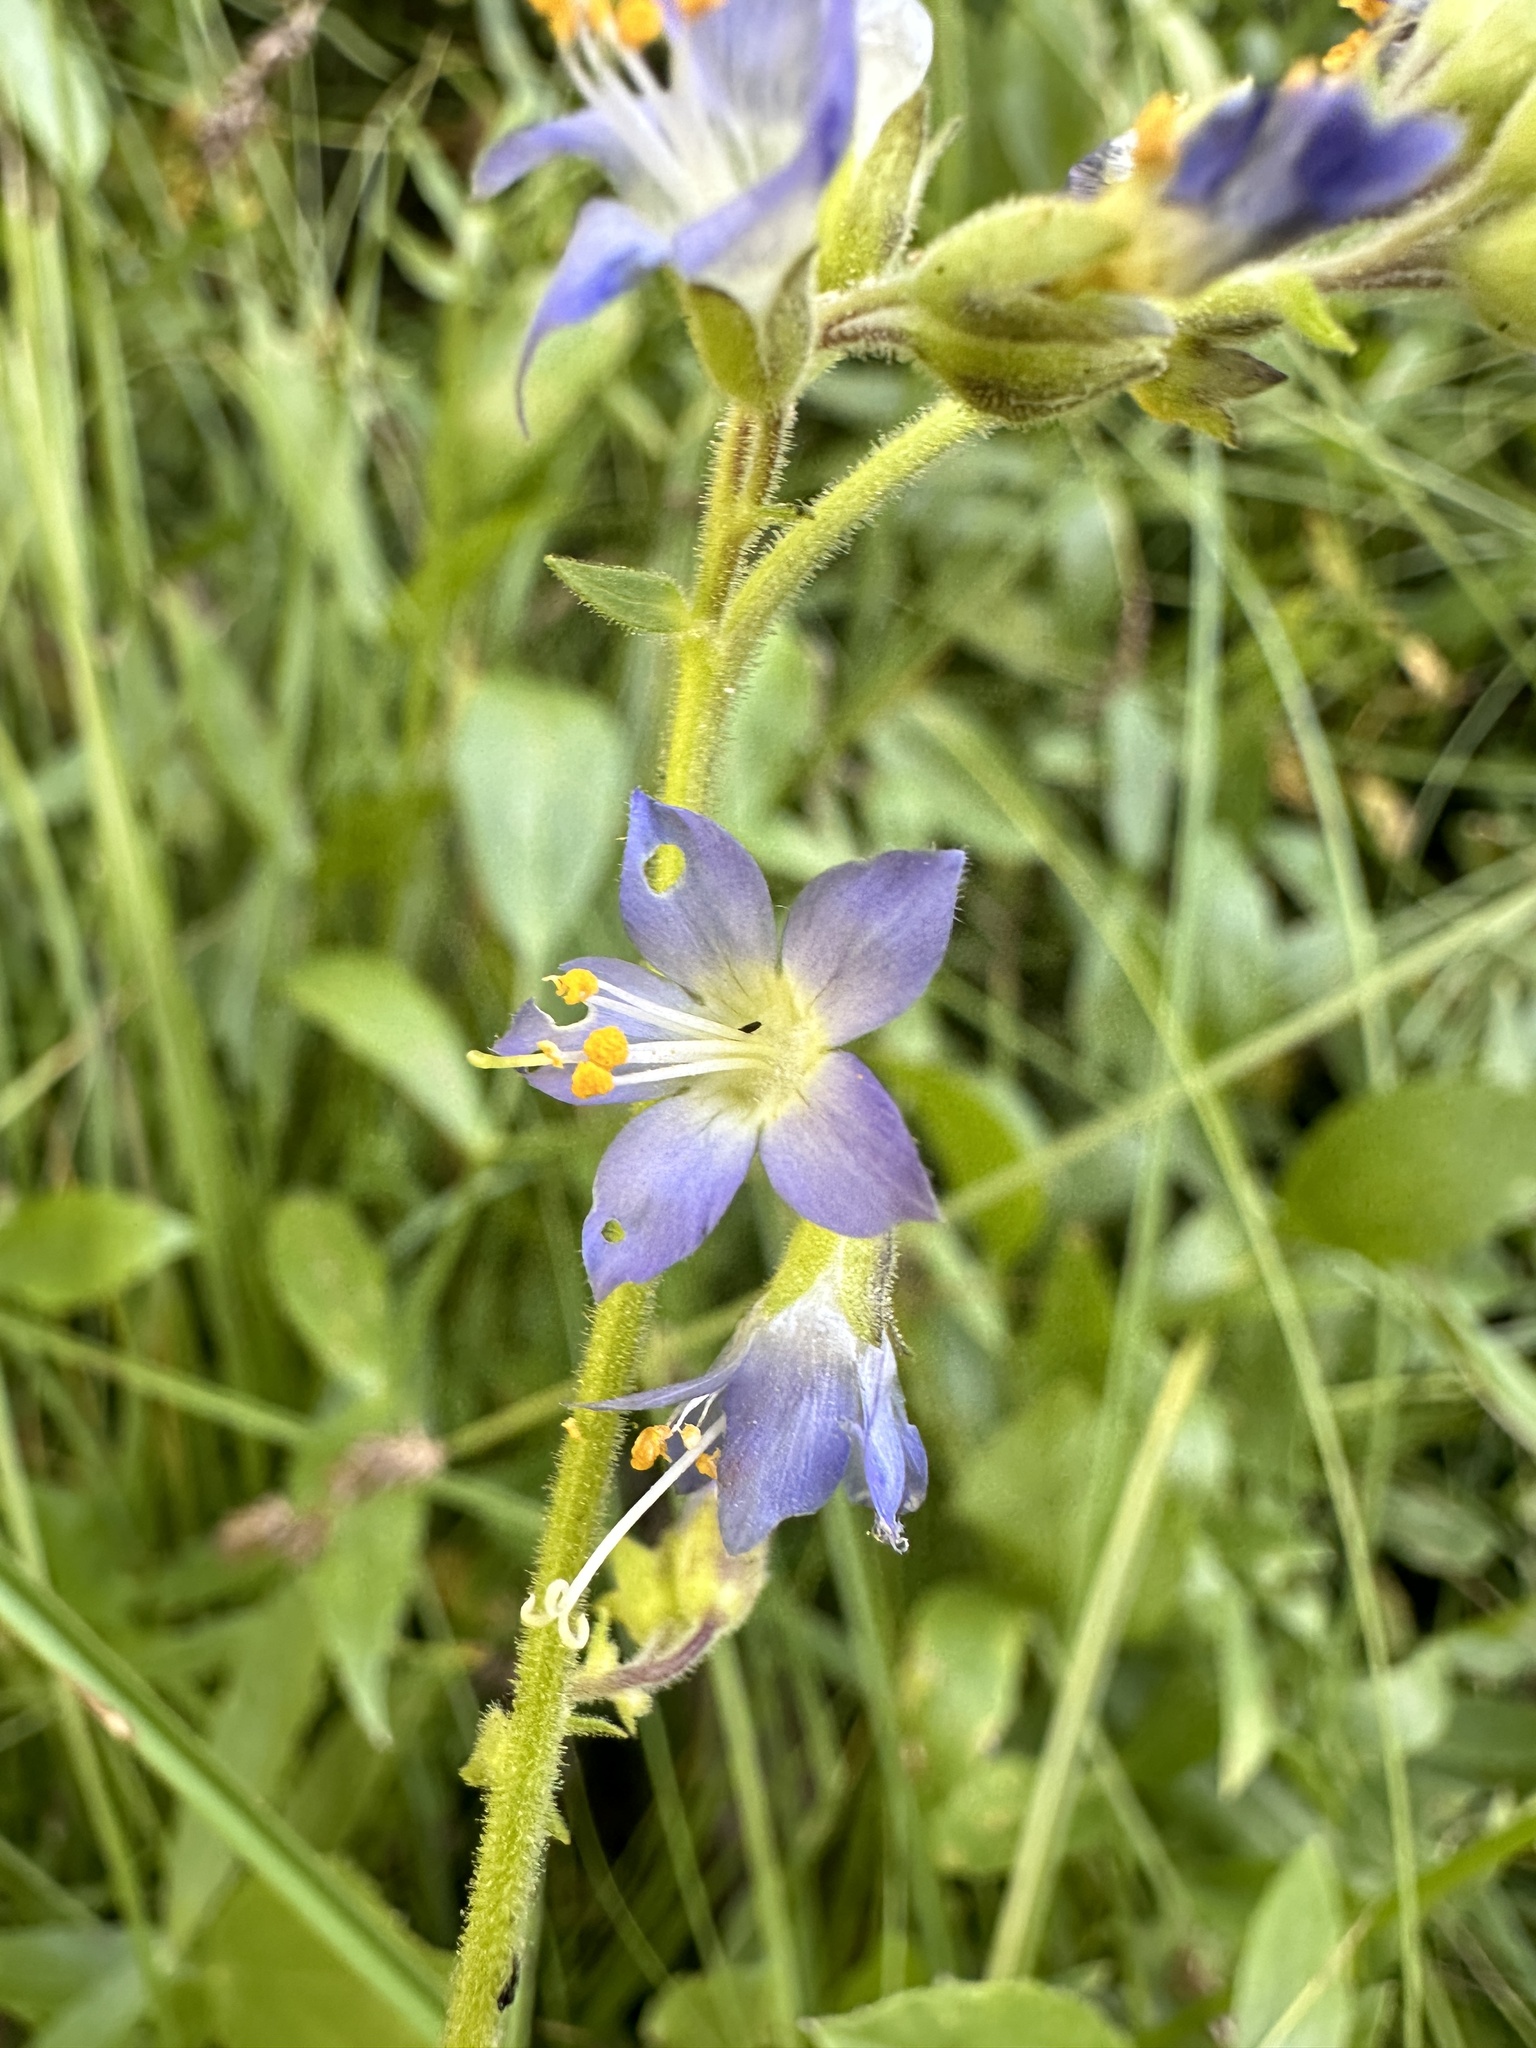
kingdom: Plantae
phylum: Tracheophyta
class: Magnoliopsida
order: Ericales
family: Polemoniaceae
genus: Polemonium
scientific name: Polemonium occidentale
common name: Western jacob's-ladder
